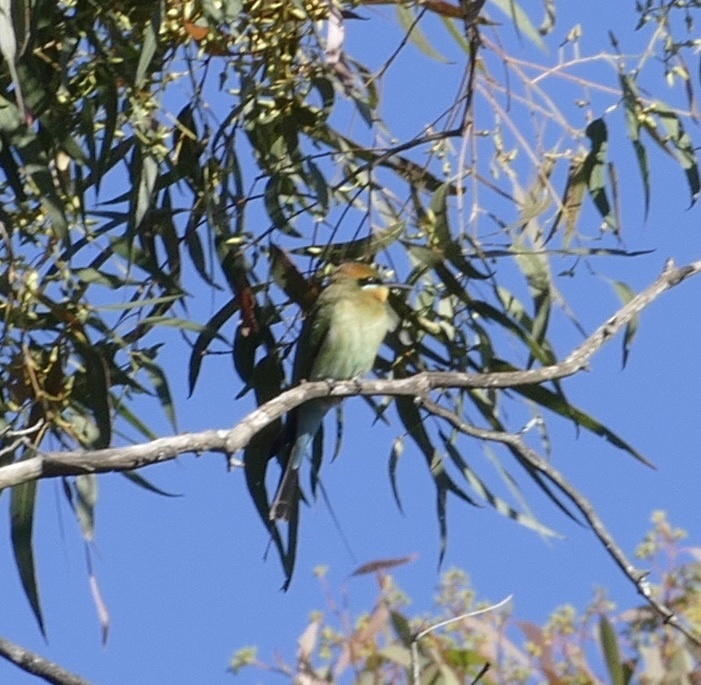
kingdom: Animalia
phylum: Chordata
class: Aves
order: Coraciiformes
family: Meropidae
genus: Merops
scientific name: Merops ornatus
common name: Rainbow bee-eater
